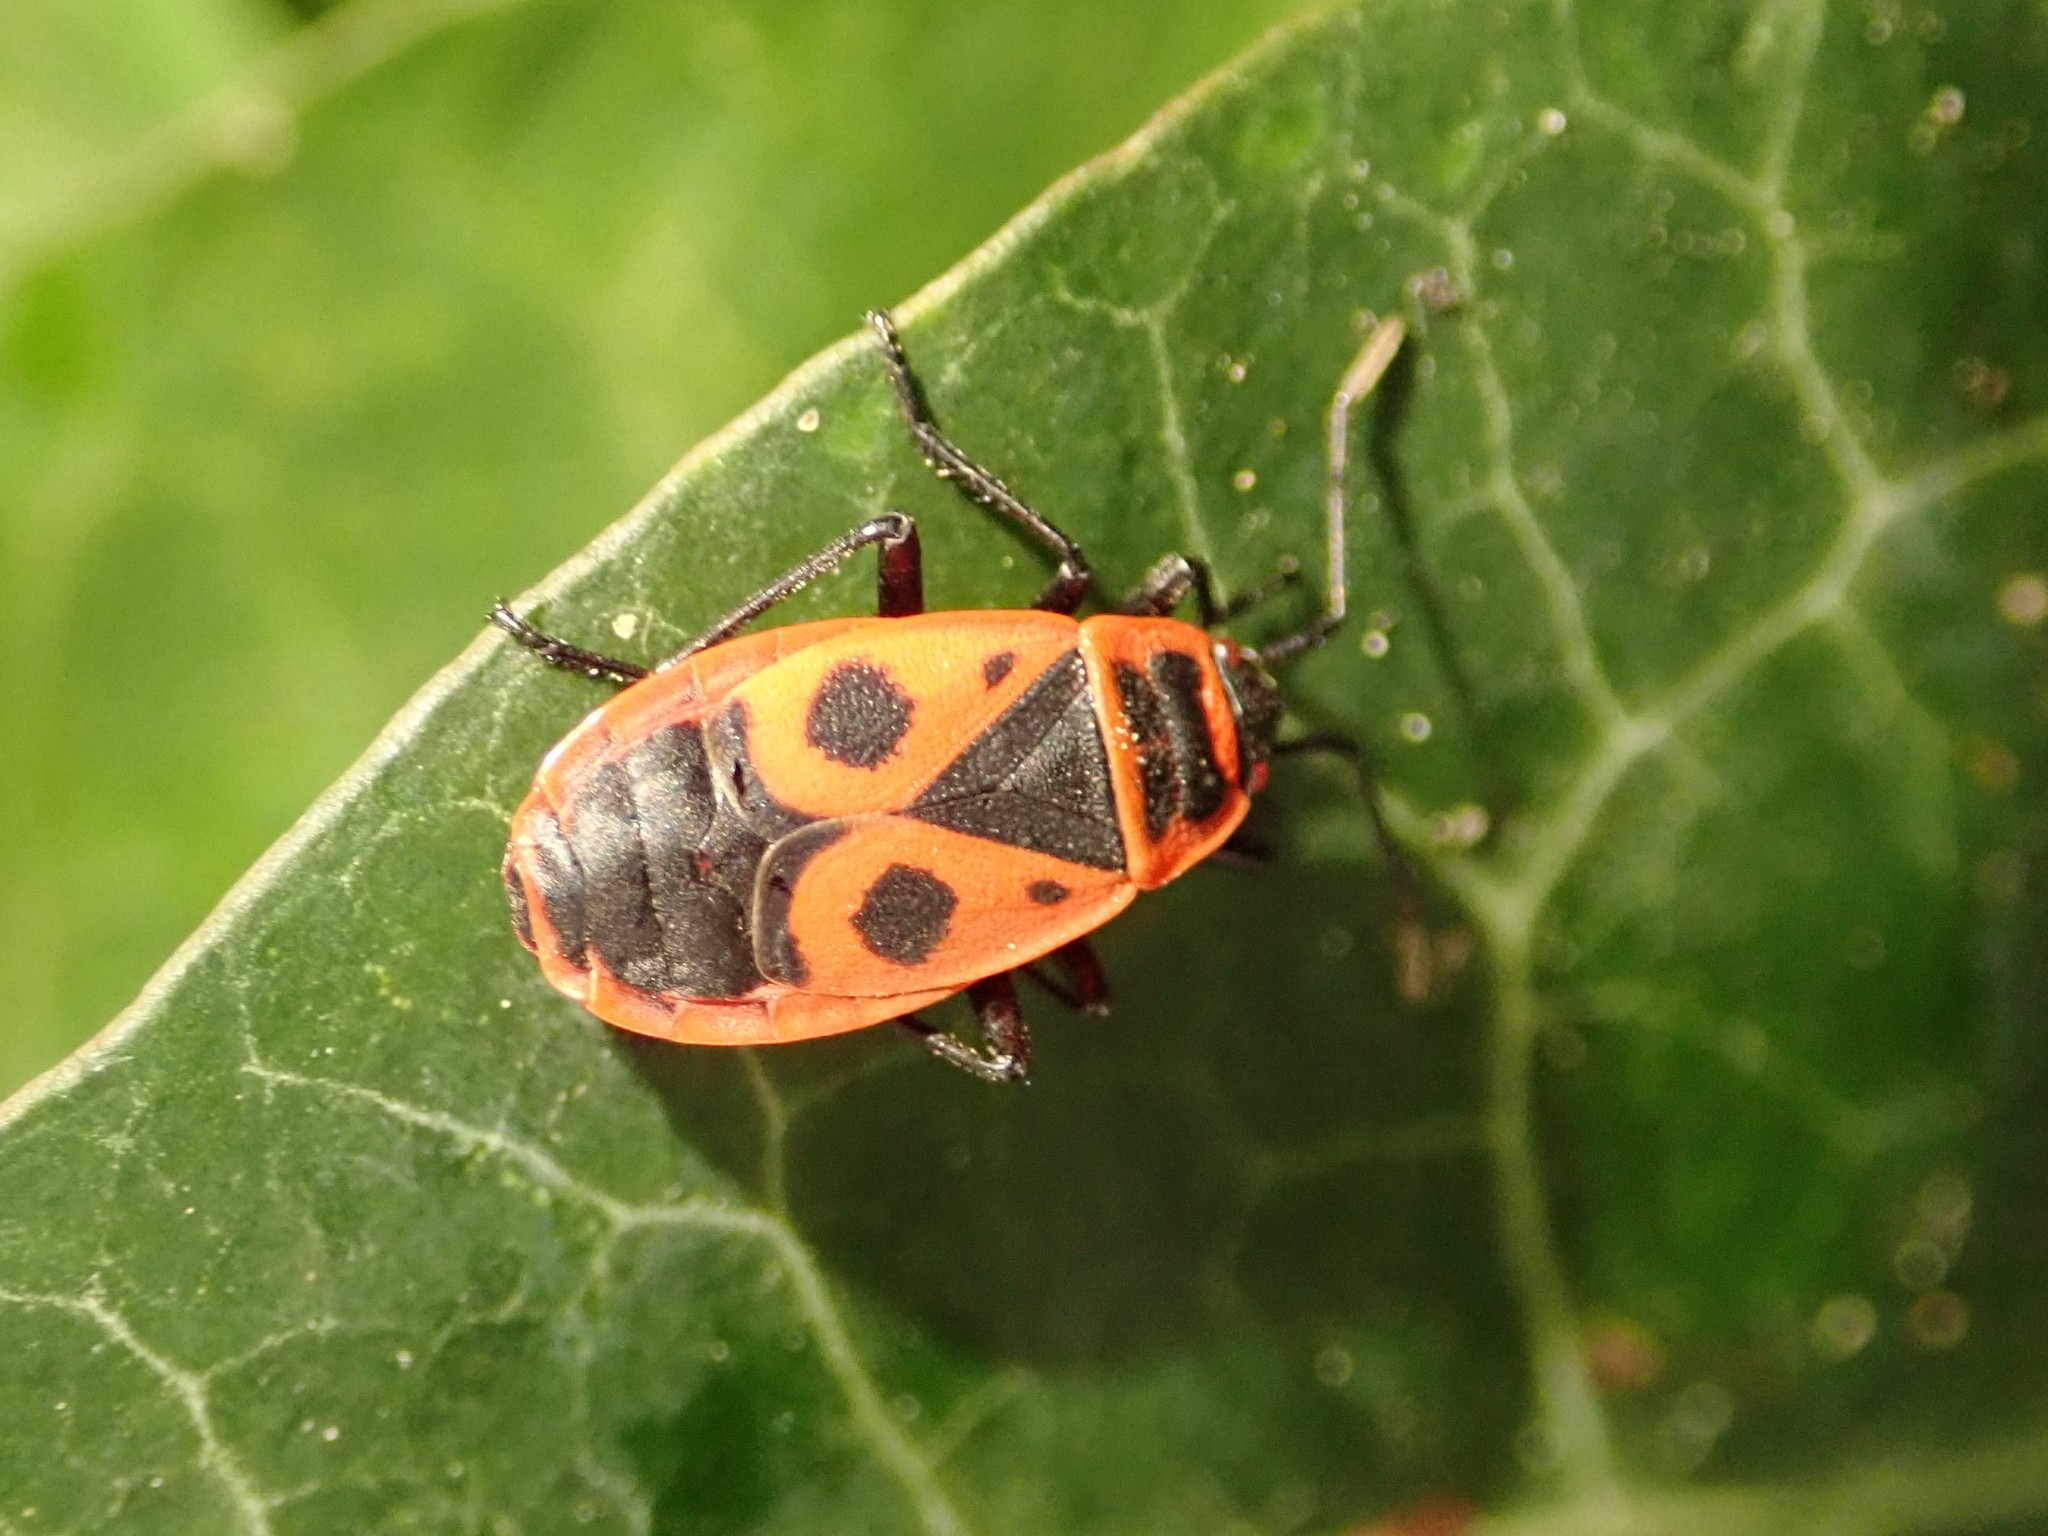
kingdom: Animalia
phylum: Arthropoda
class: Insecta
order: Hemiptera
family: Pyrrhocoridae
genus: Pyrrhocoris
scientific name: Pyrrhocoris apterus
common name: Firebug
